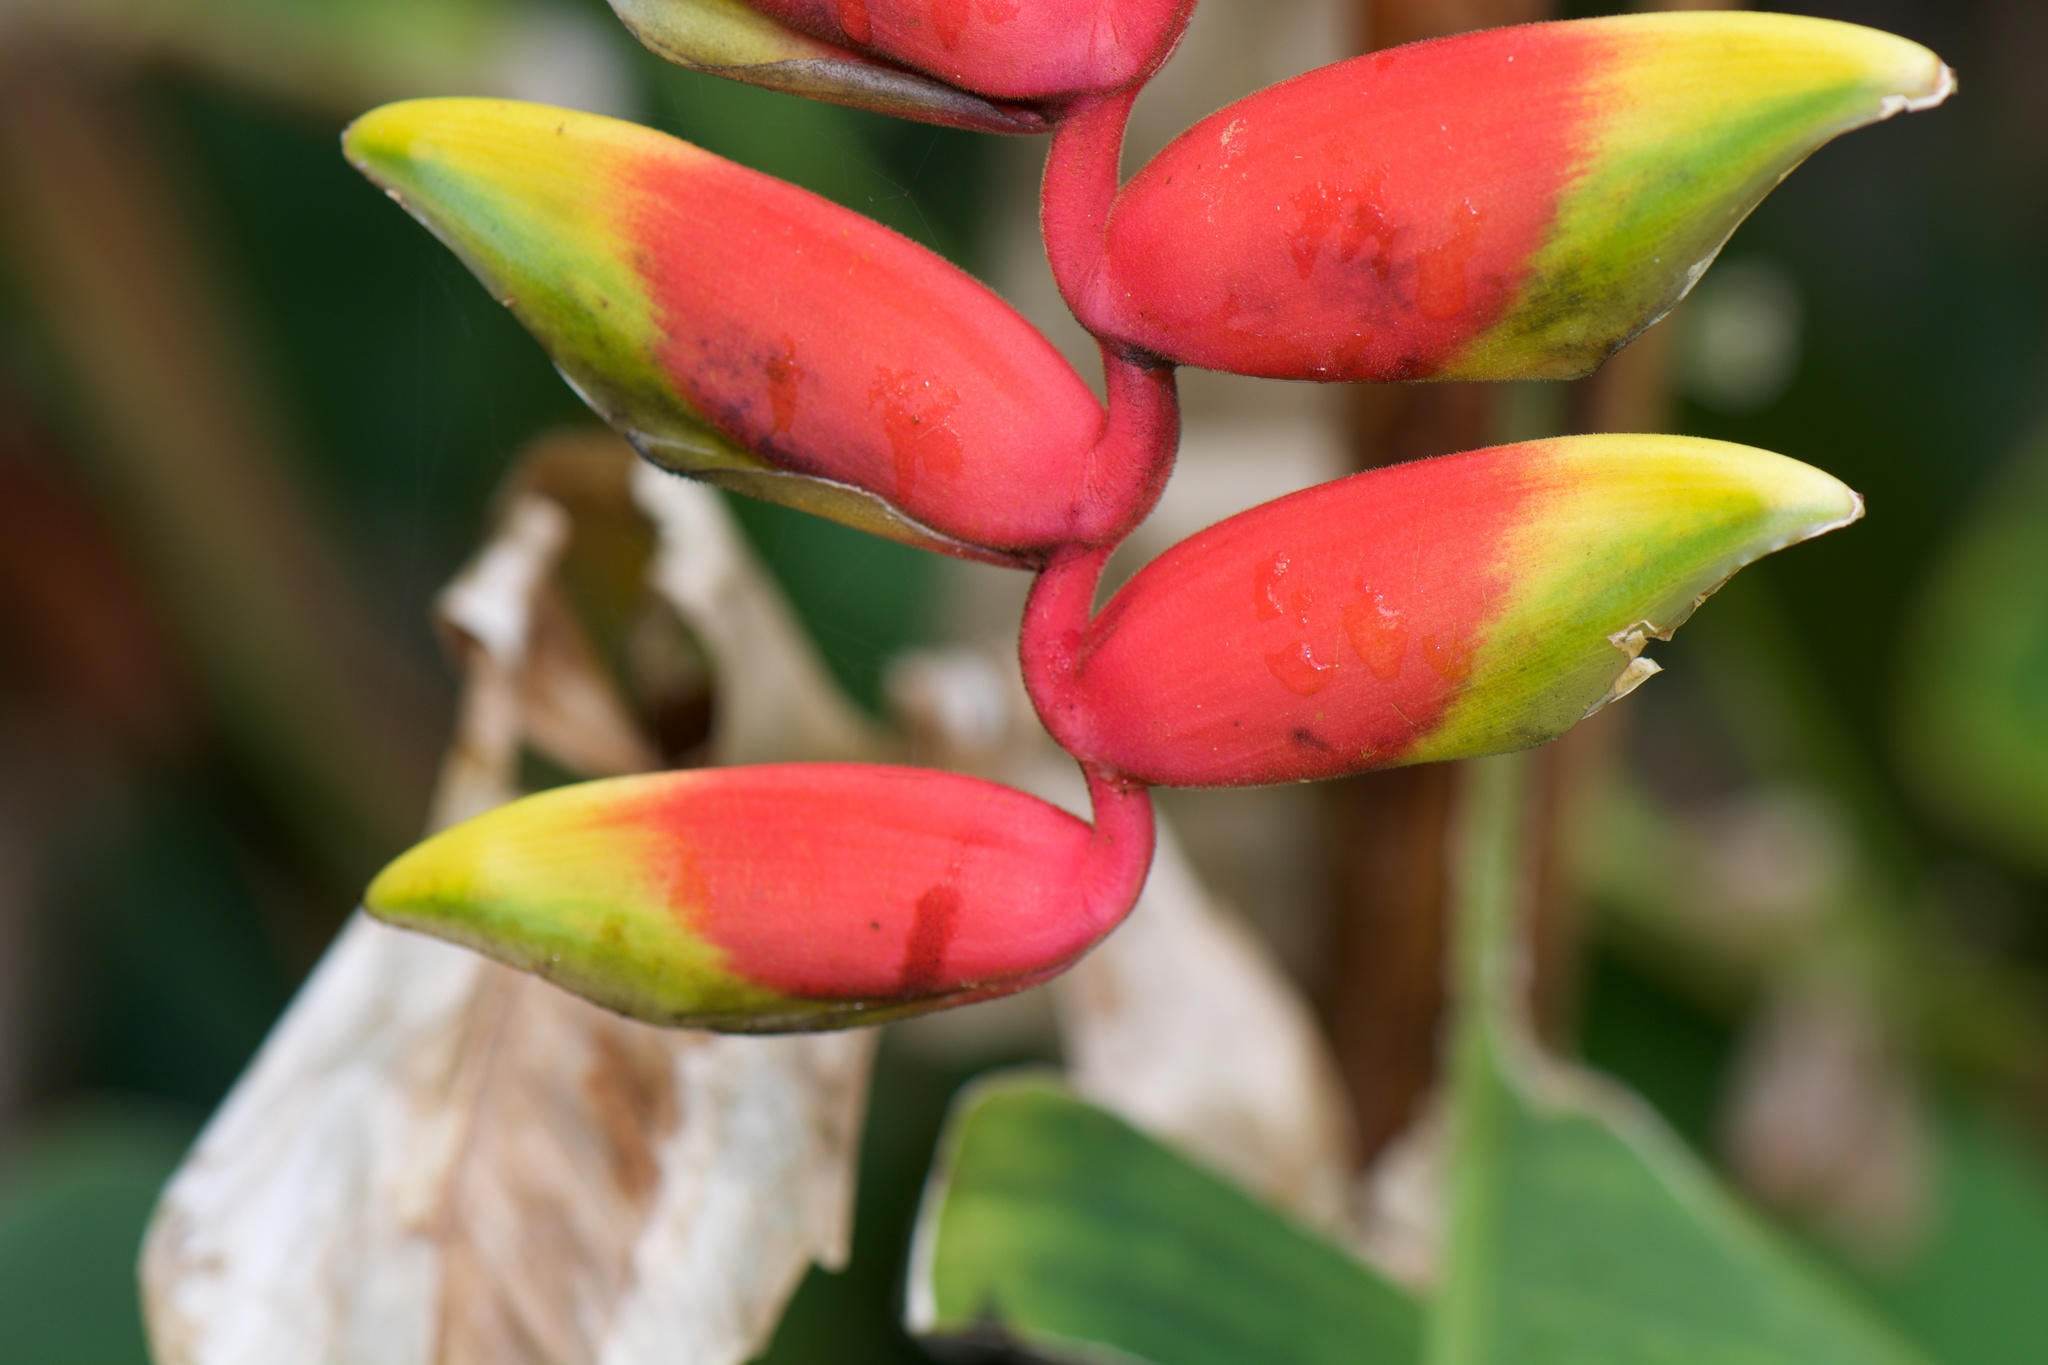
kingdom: Plantae
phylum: Tracheophyta
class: Liliopsida
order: Zingiberales
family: Heliconiaceae
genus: Heliconia
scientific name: Heliconia rostrata
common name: False bird of paradise
